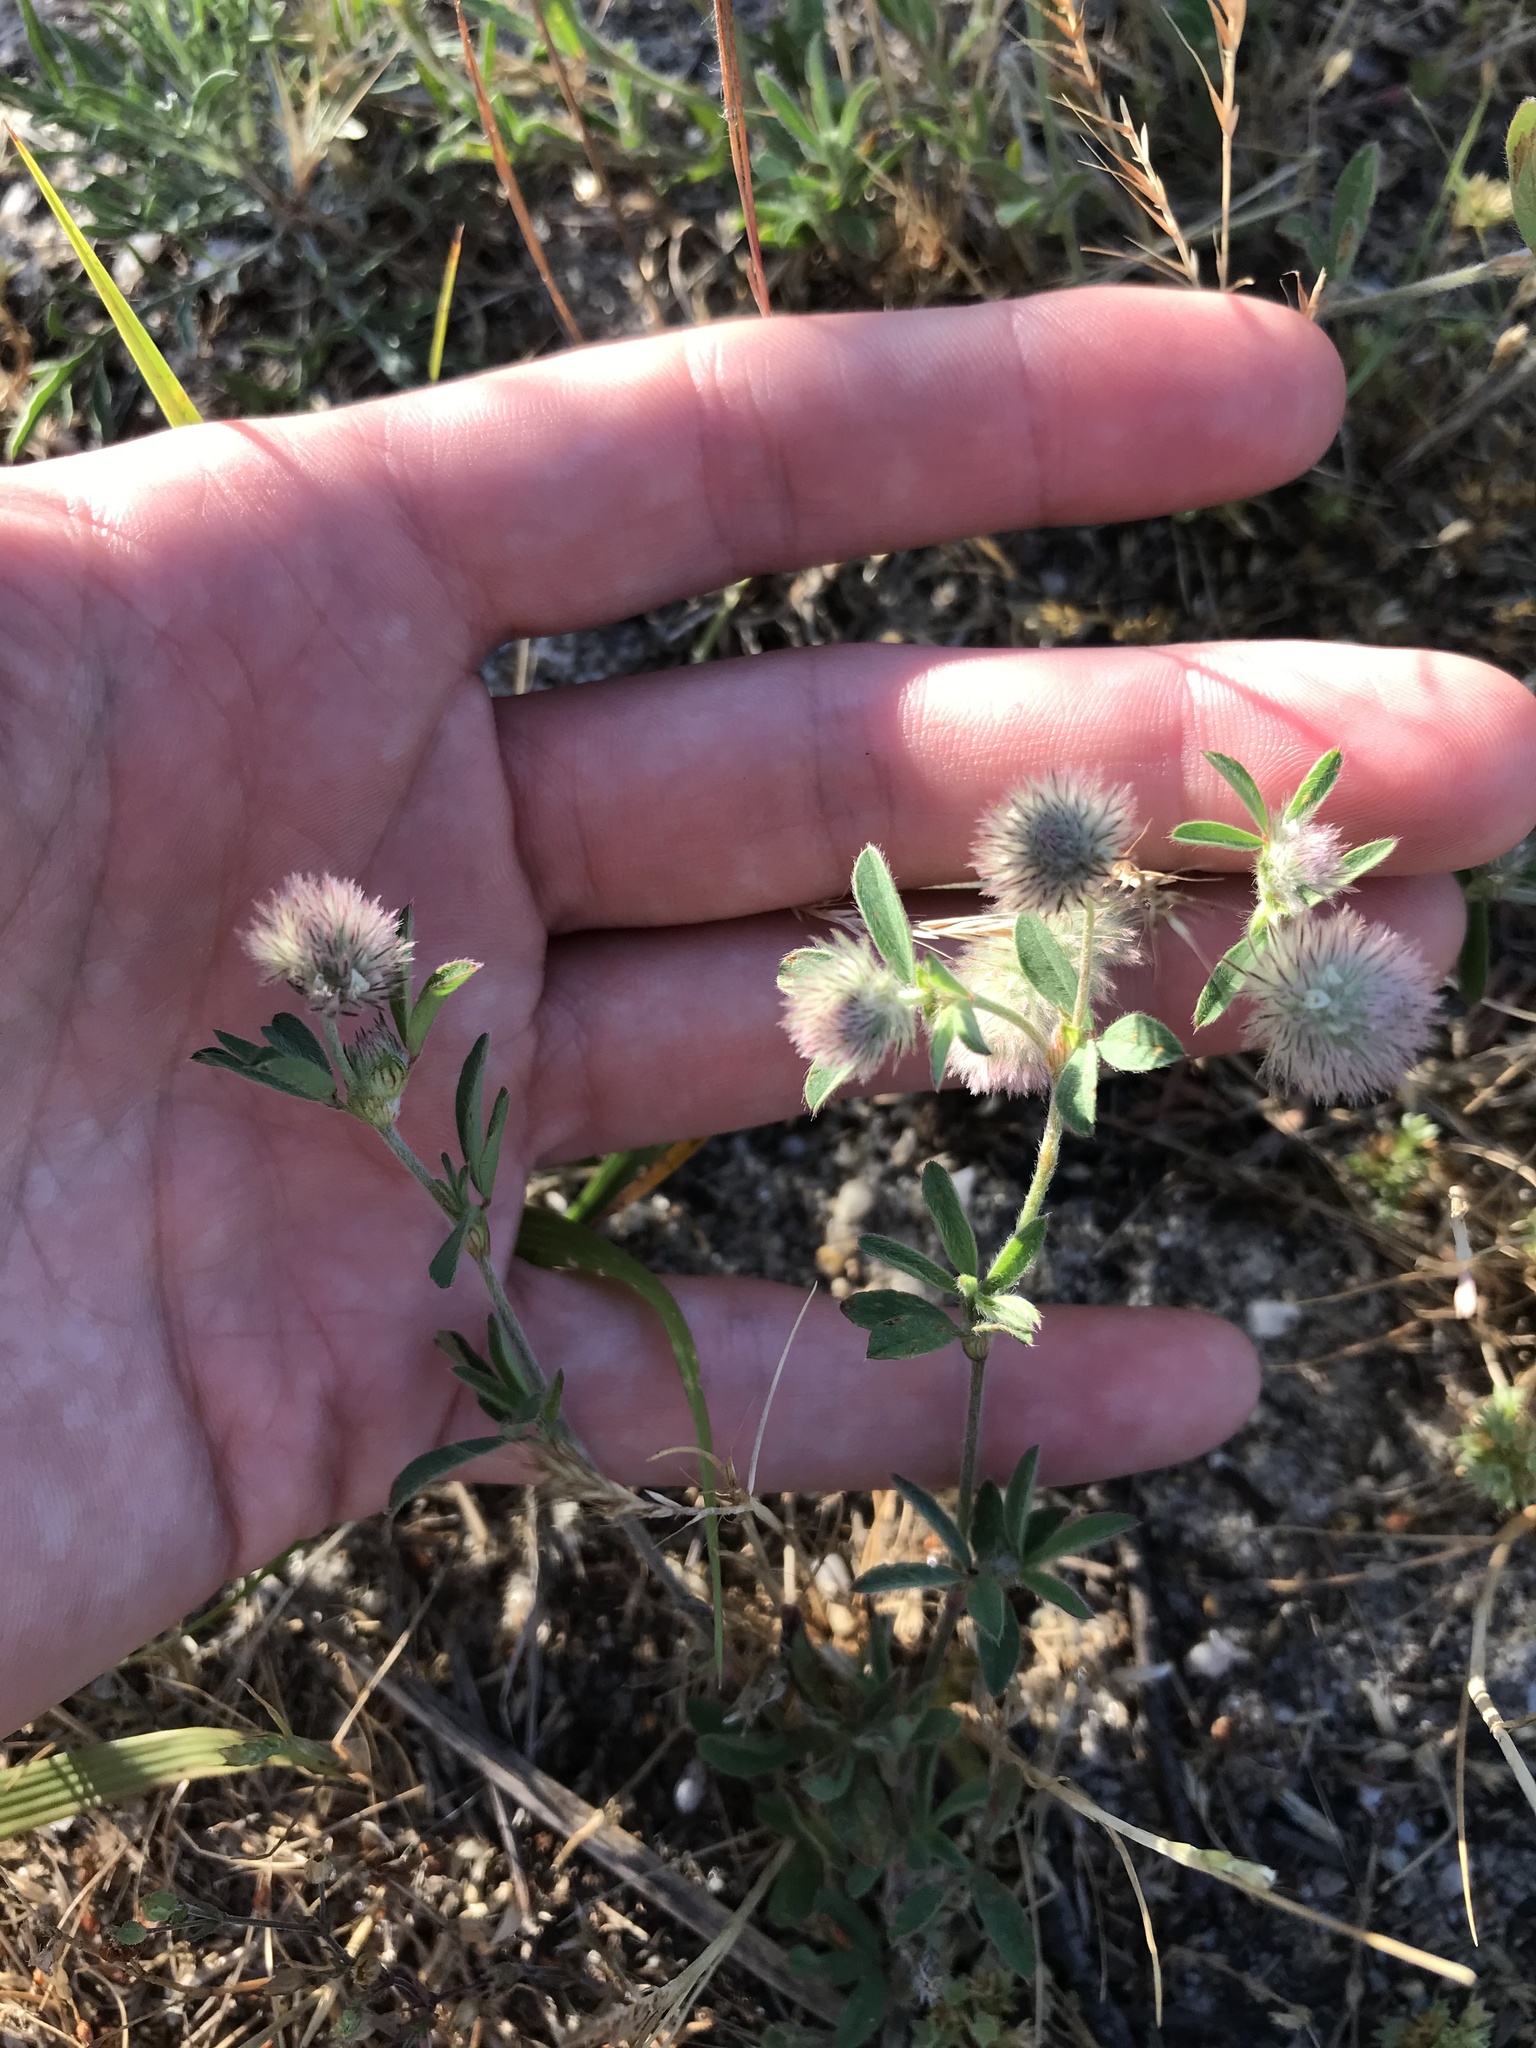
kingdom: Plantae
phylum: Tracheophyta
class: Magnoliopsida
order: Fabales
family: Fabaceae
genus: Trifolium
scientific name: Trifolium arvense
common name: Hare's-foot clover
